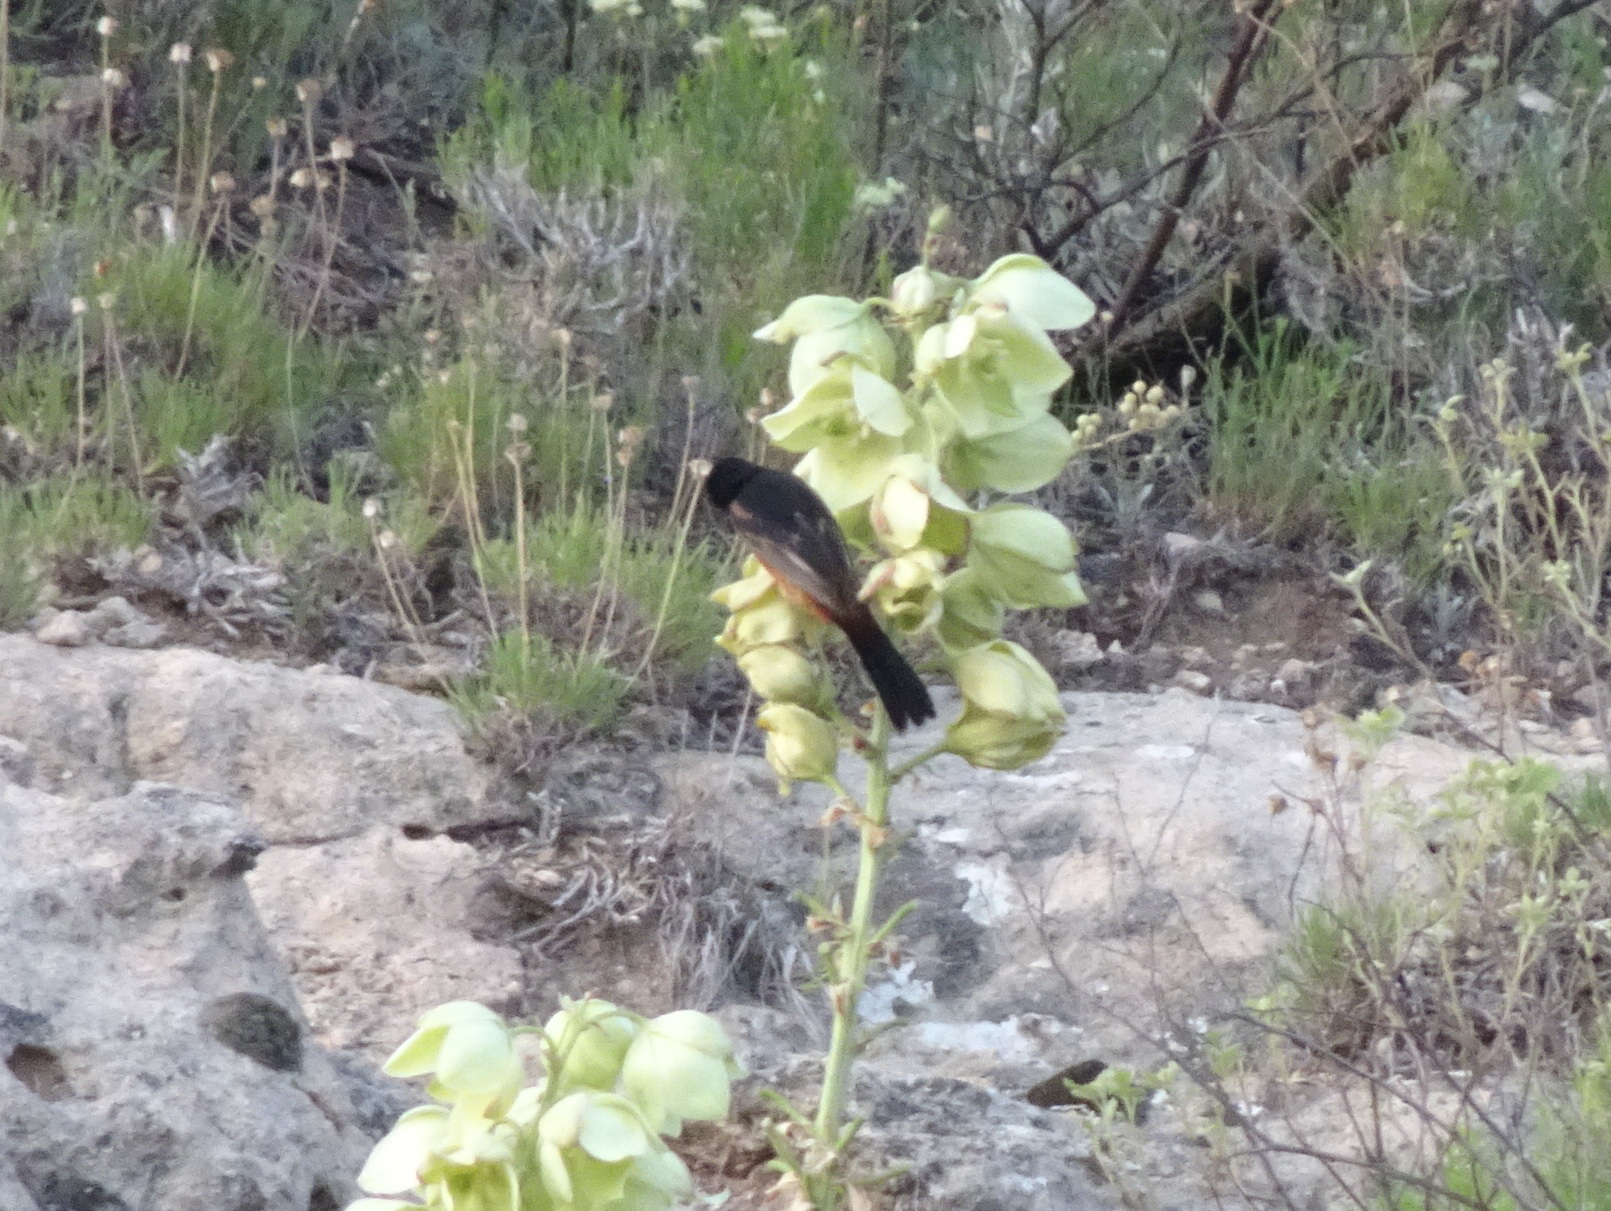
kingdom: Animalia
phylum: Chordata
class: Aves
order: Passeriformes
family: Icteridae
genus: Icterus
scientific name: Icterus spurius
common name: Orchard oriole
